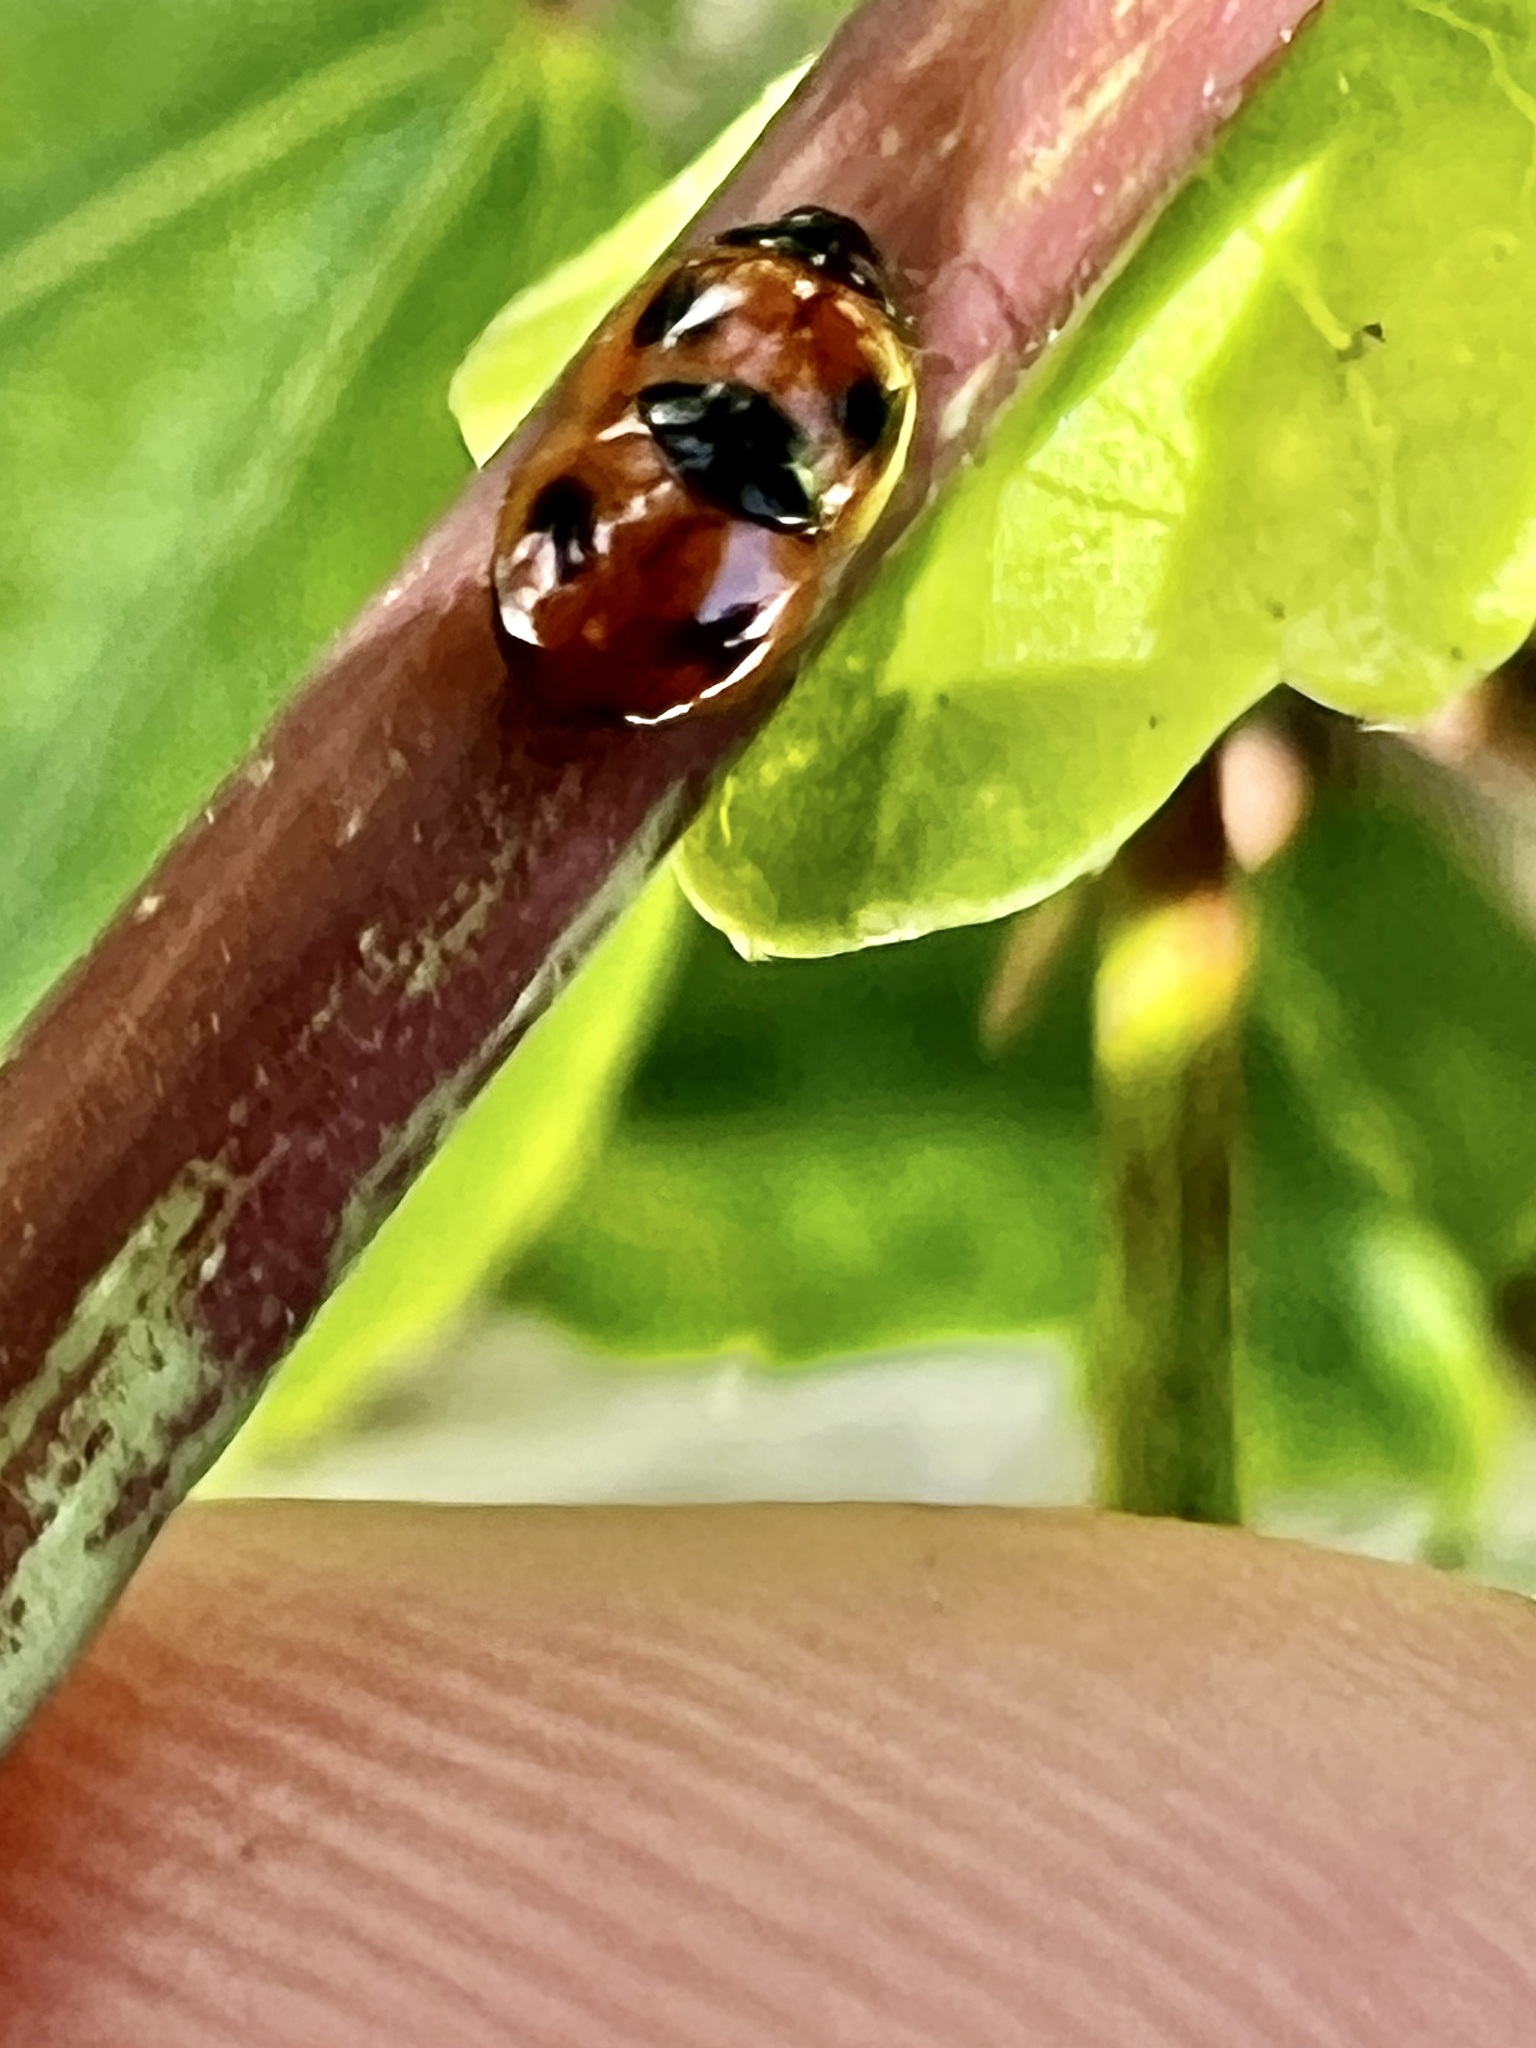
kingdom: Animalia
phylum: Arthropoda
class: Insecta
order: Coleoptera
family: Coccinellidae
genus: Exochomus
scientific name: Exochomus childreni
